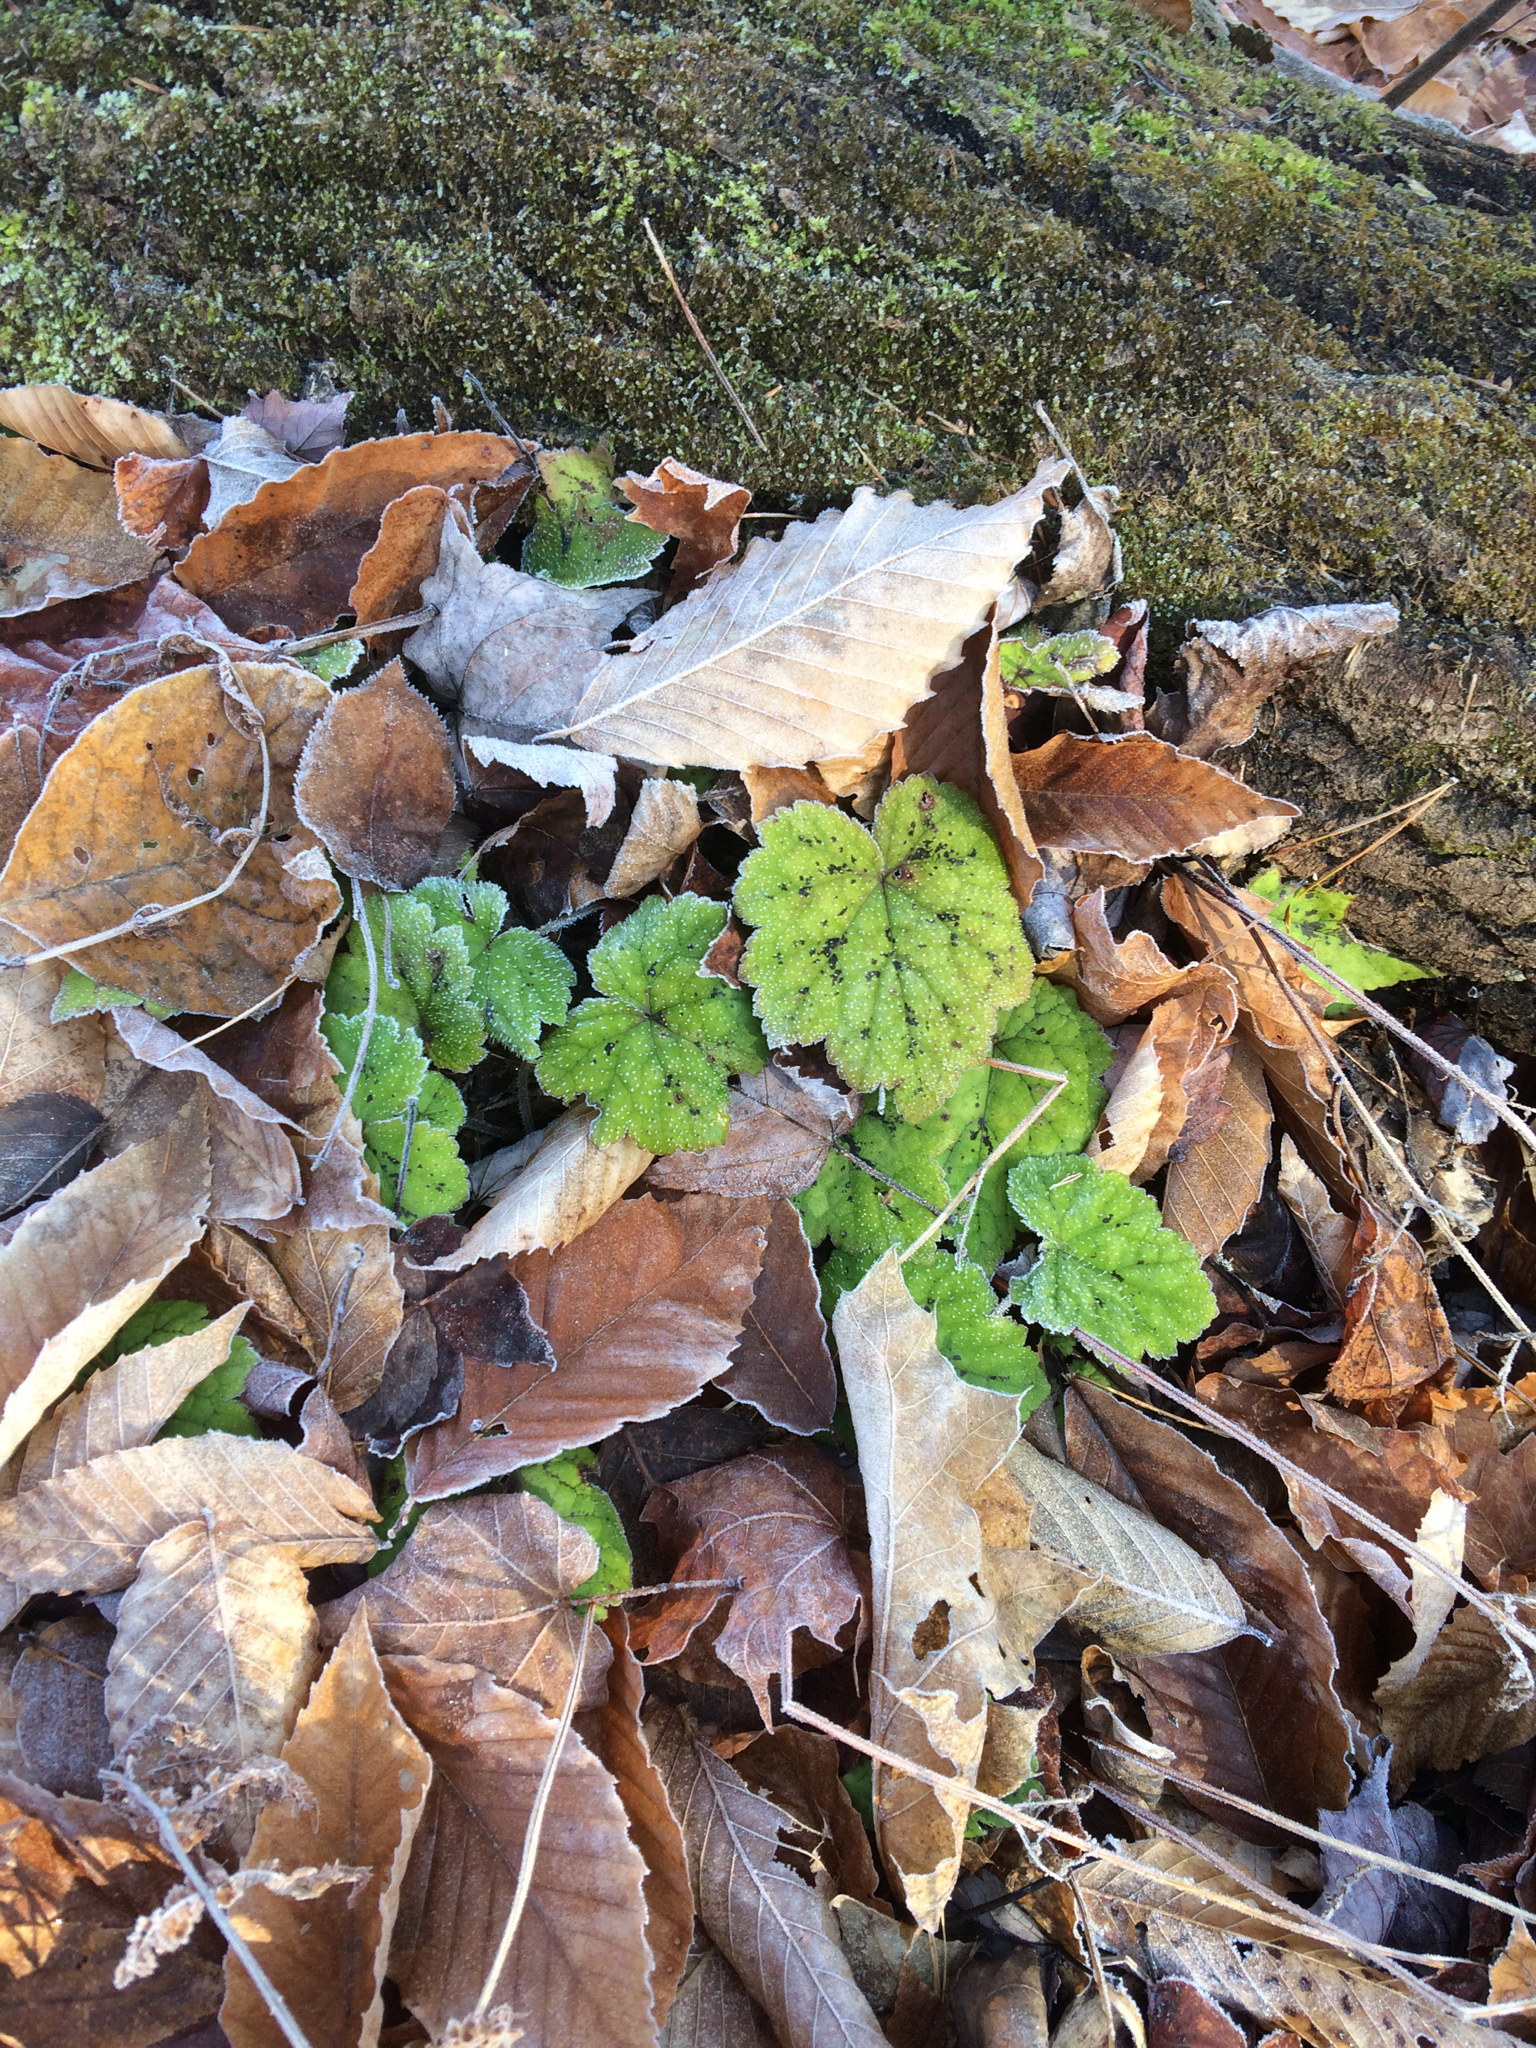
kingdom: Plantae
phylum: Tracheophyta
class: Magnoliopsida
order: Saxifragales
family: Saxifragaceae
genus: Tiarella
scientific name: Tiarella stolonifera
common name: Stoloniferous foamflower
